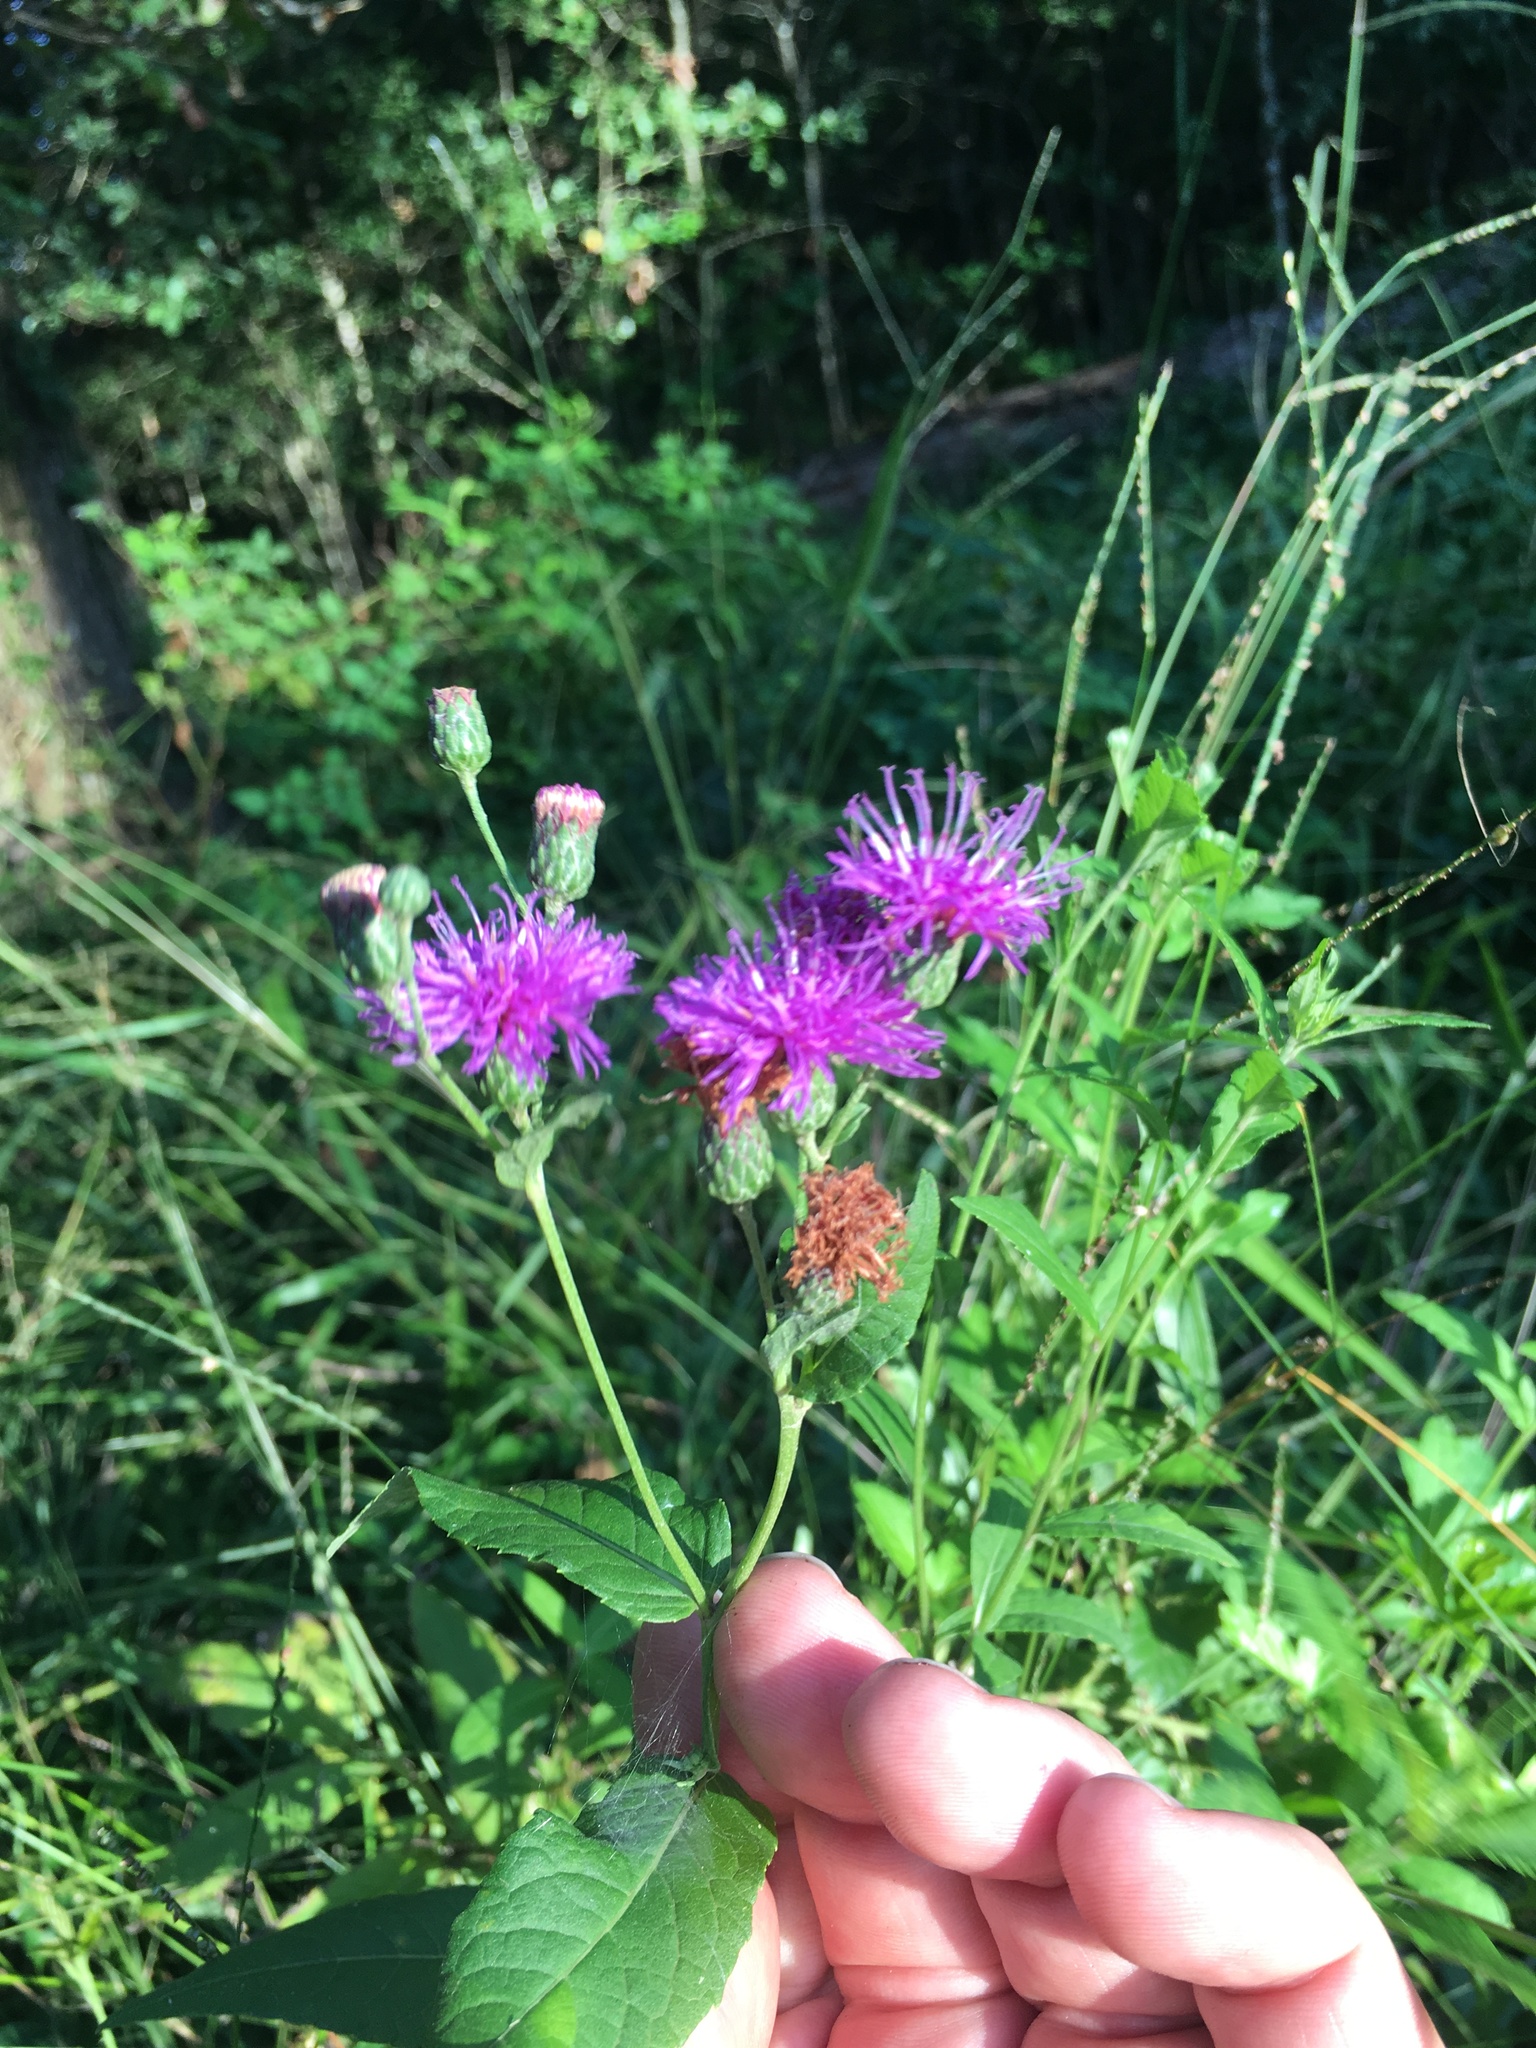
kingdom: Plantae
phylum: Tracheophyta
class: Magnoliopsida
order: Asterales
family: Asteraceae
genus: Vernonia
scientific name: Vernonia missurica
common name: Missouri ironweed
